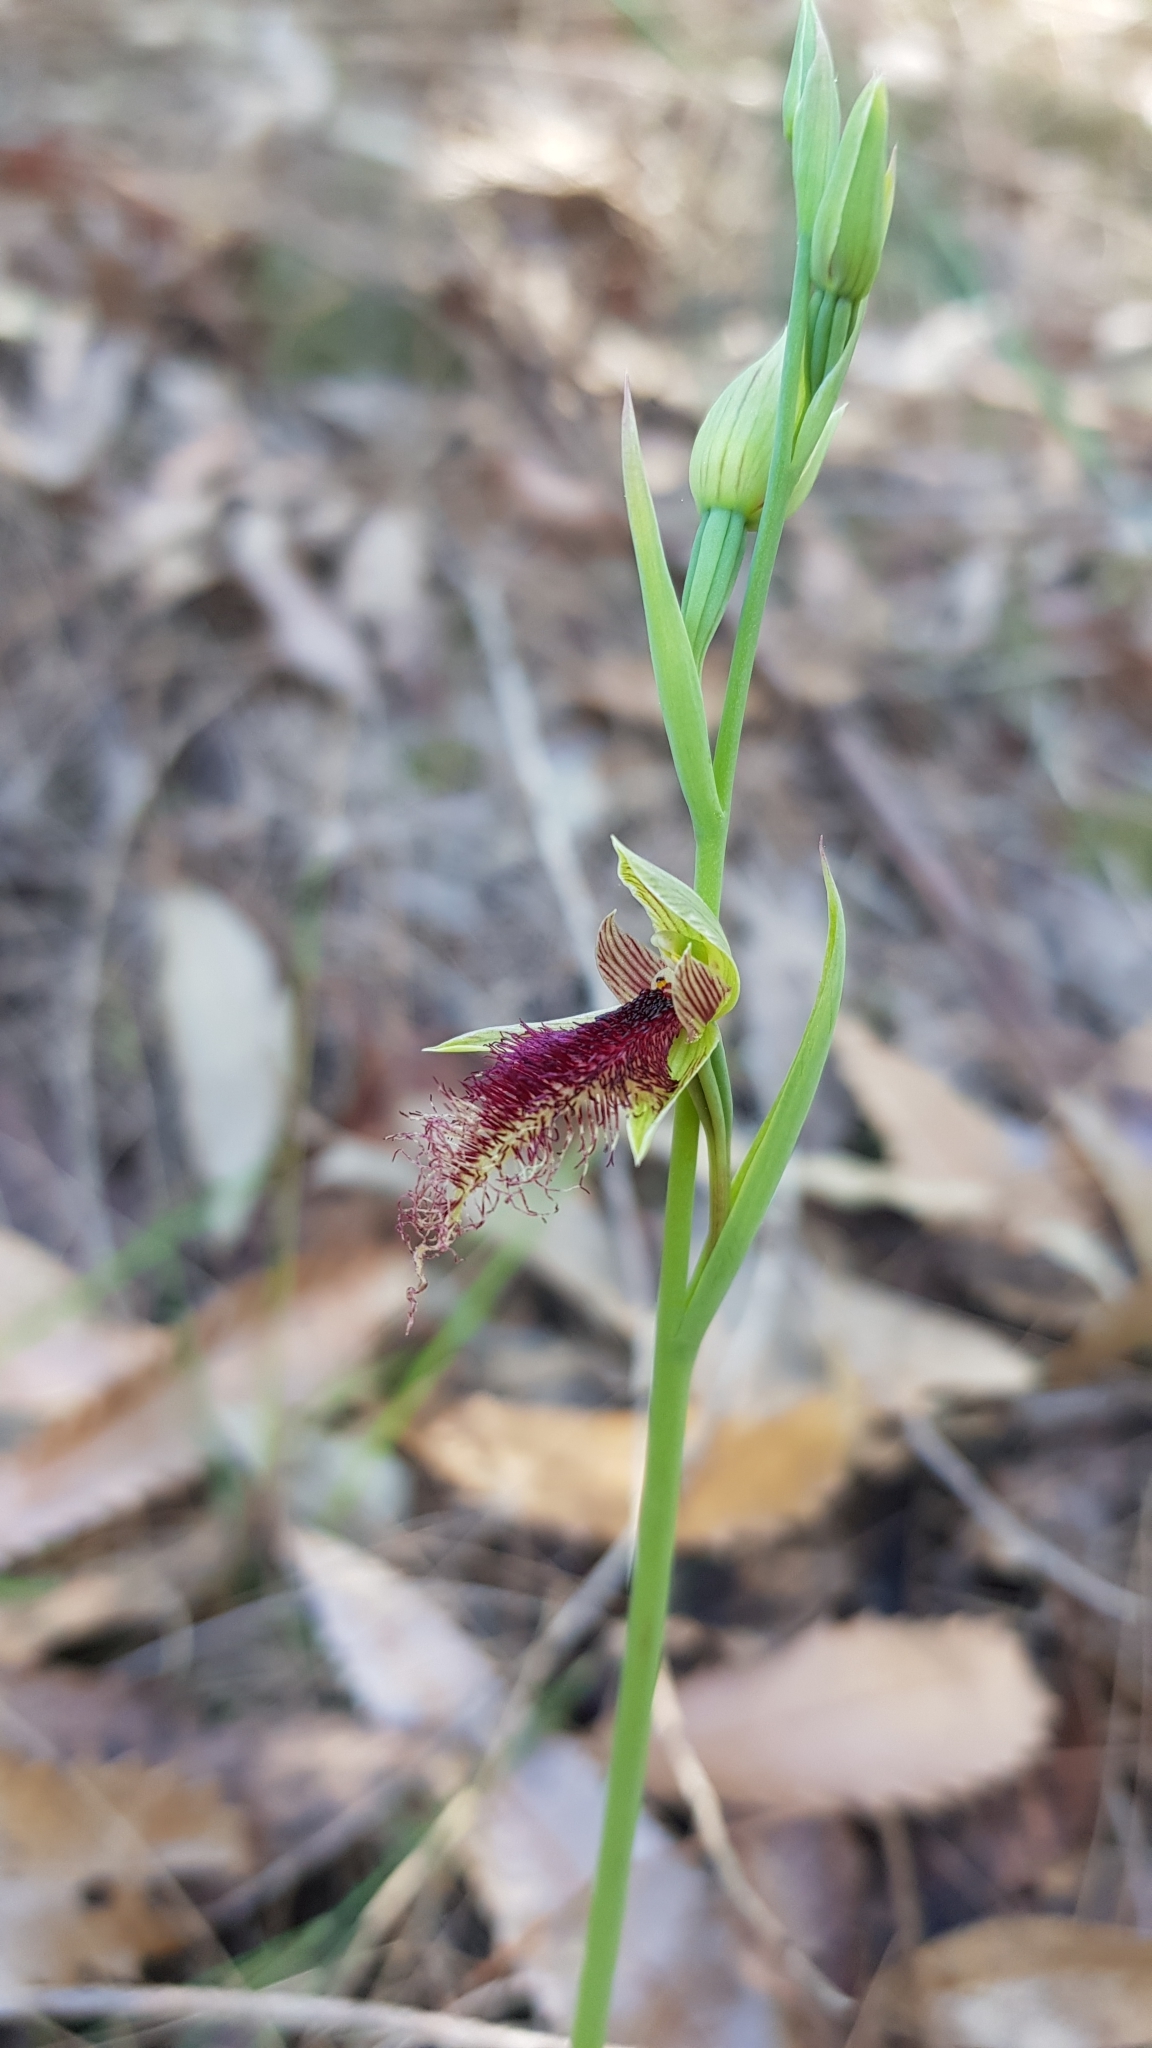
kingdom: Plantae
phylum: Tracheophyta
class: Liliopsida
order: Asparagales
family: Orchidaceae
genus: Calochilus
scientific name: Calochilus robertsonii
